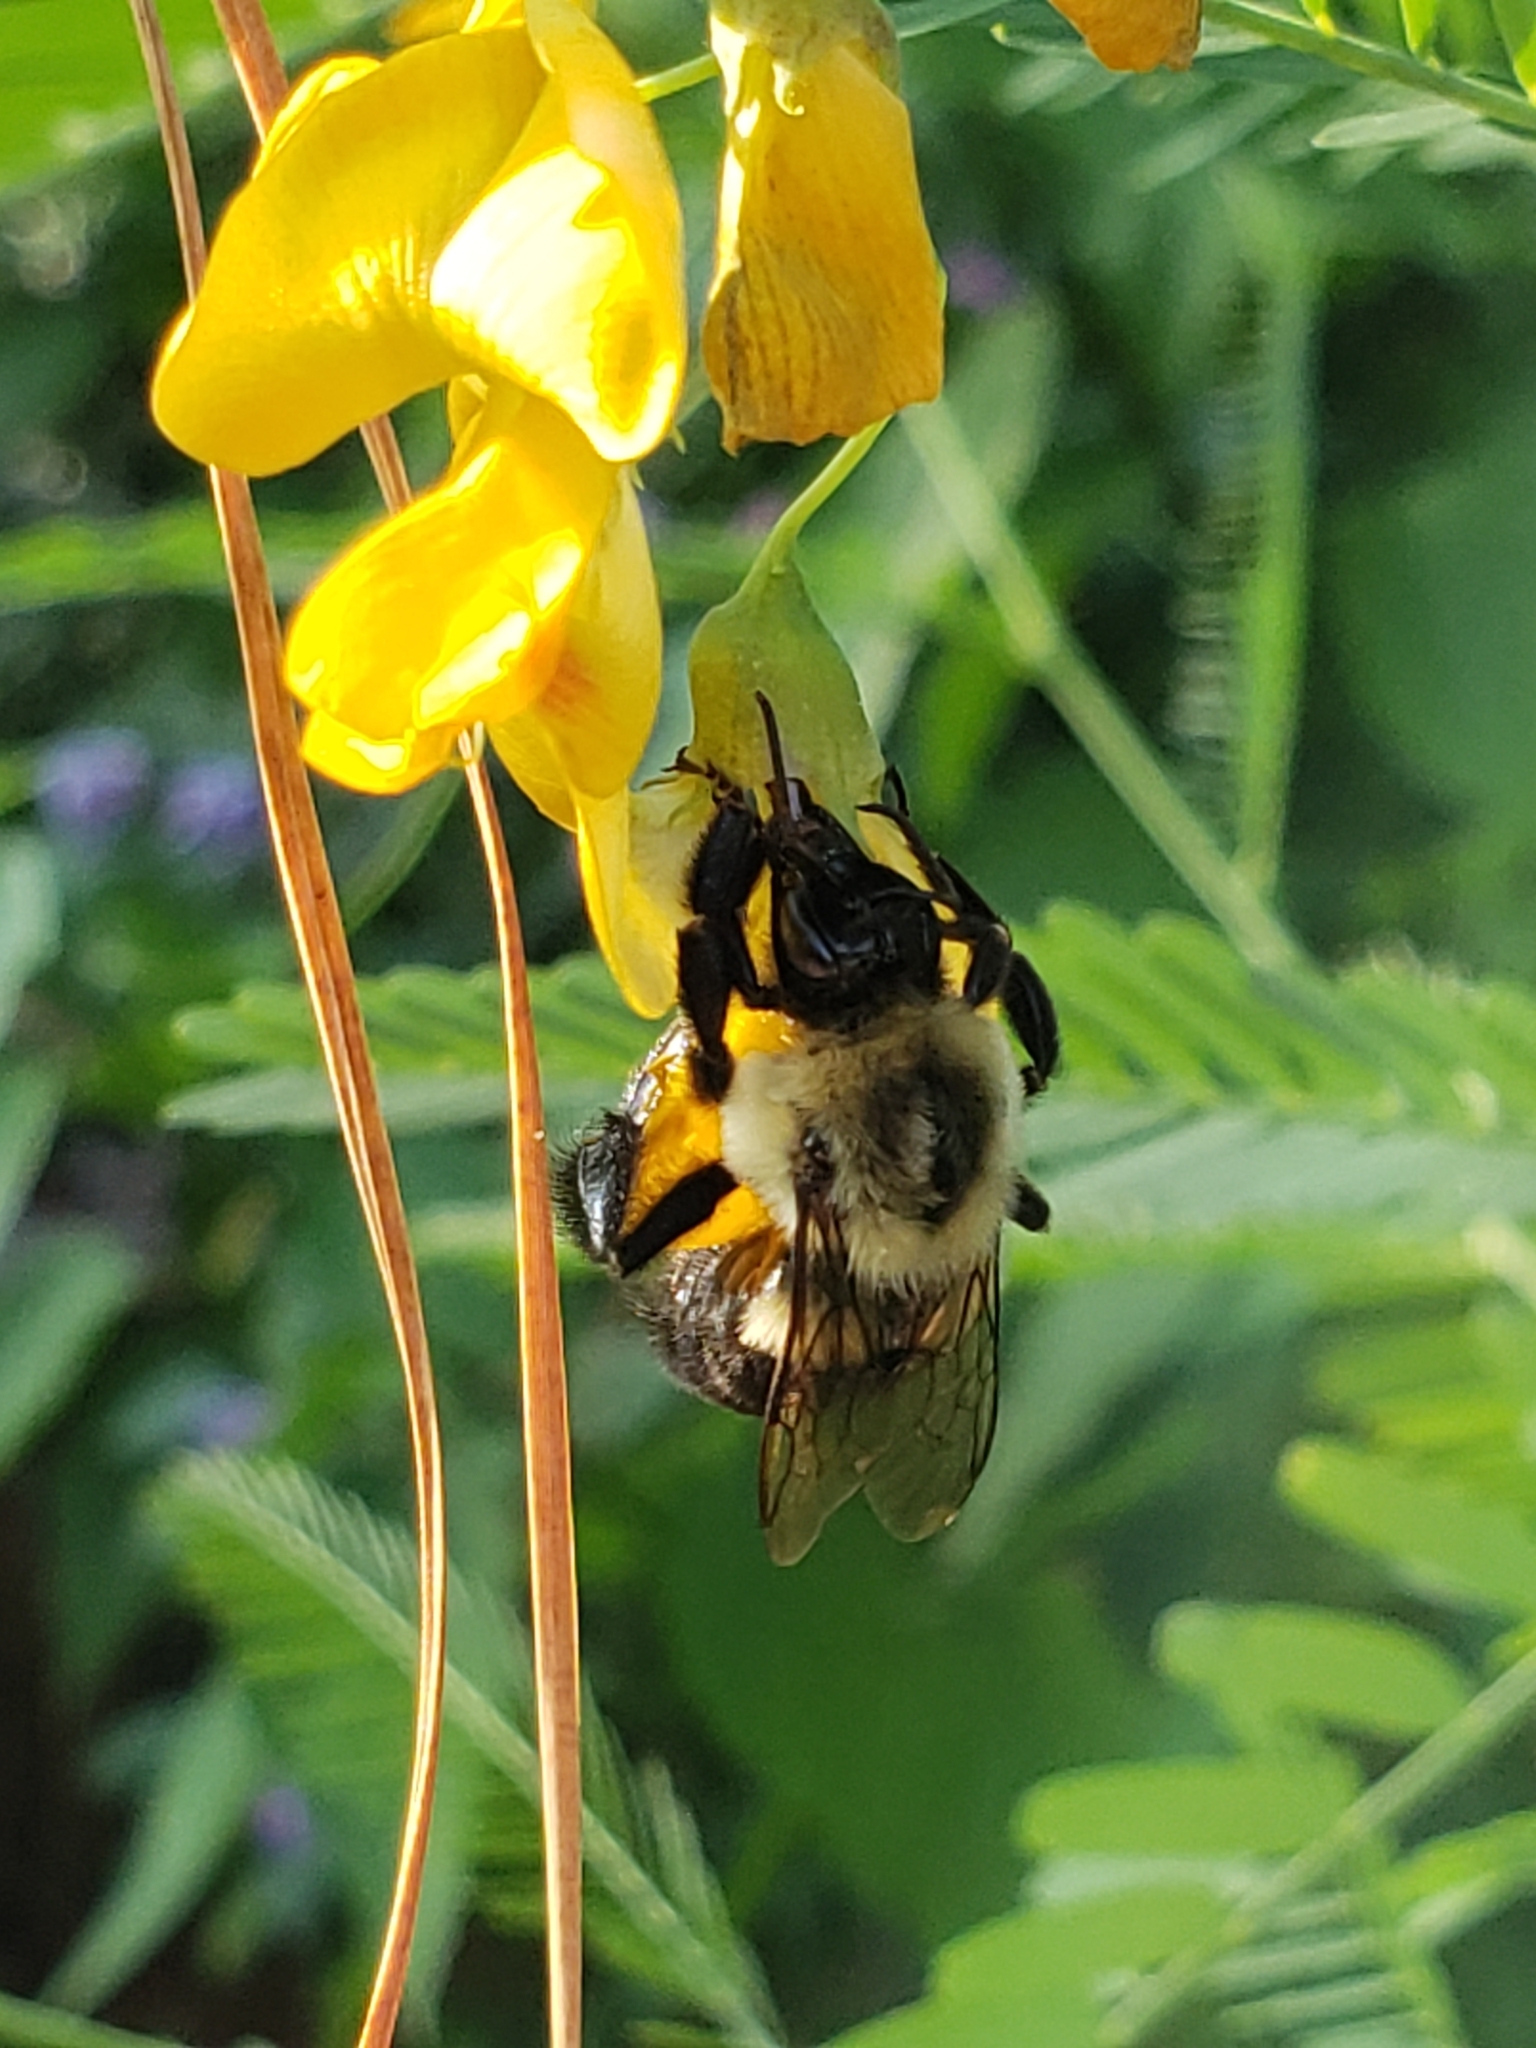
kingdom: Animalia
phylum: Arthropoda
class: Insecta
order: Hymenoptera
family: Apidae
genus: Bombus
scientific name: Bombus impatiens
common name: Common eastern bumble bee
